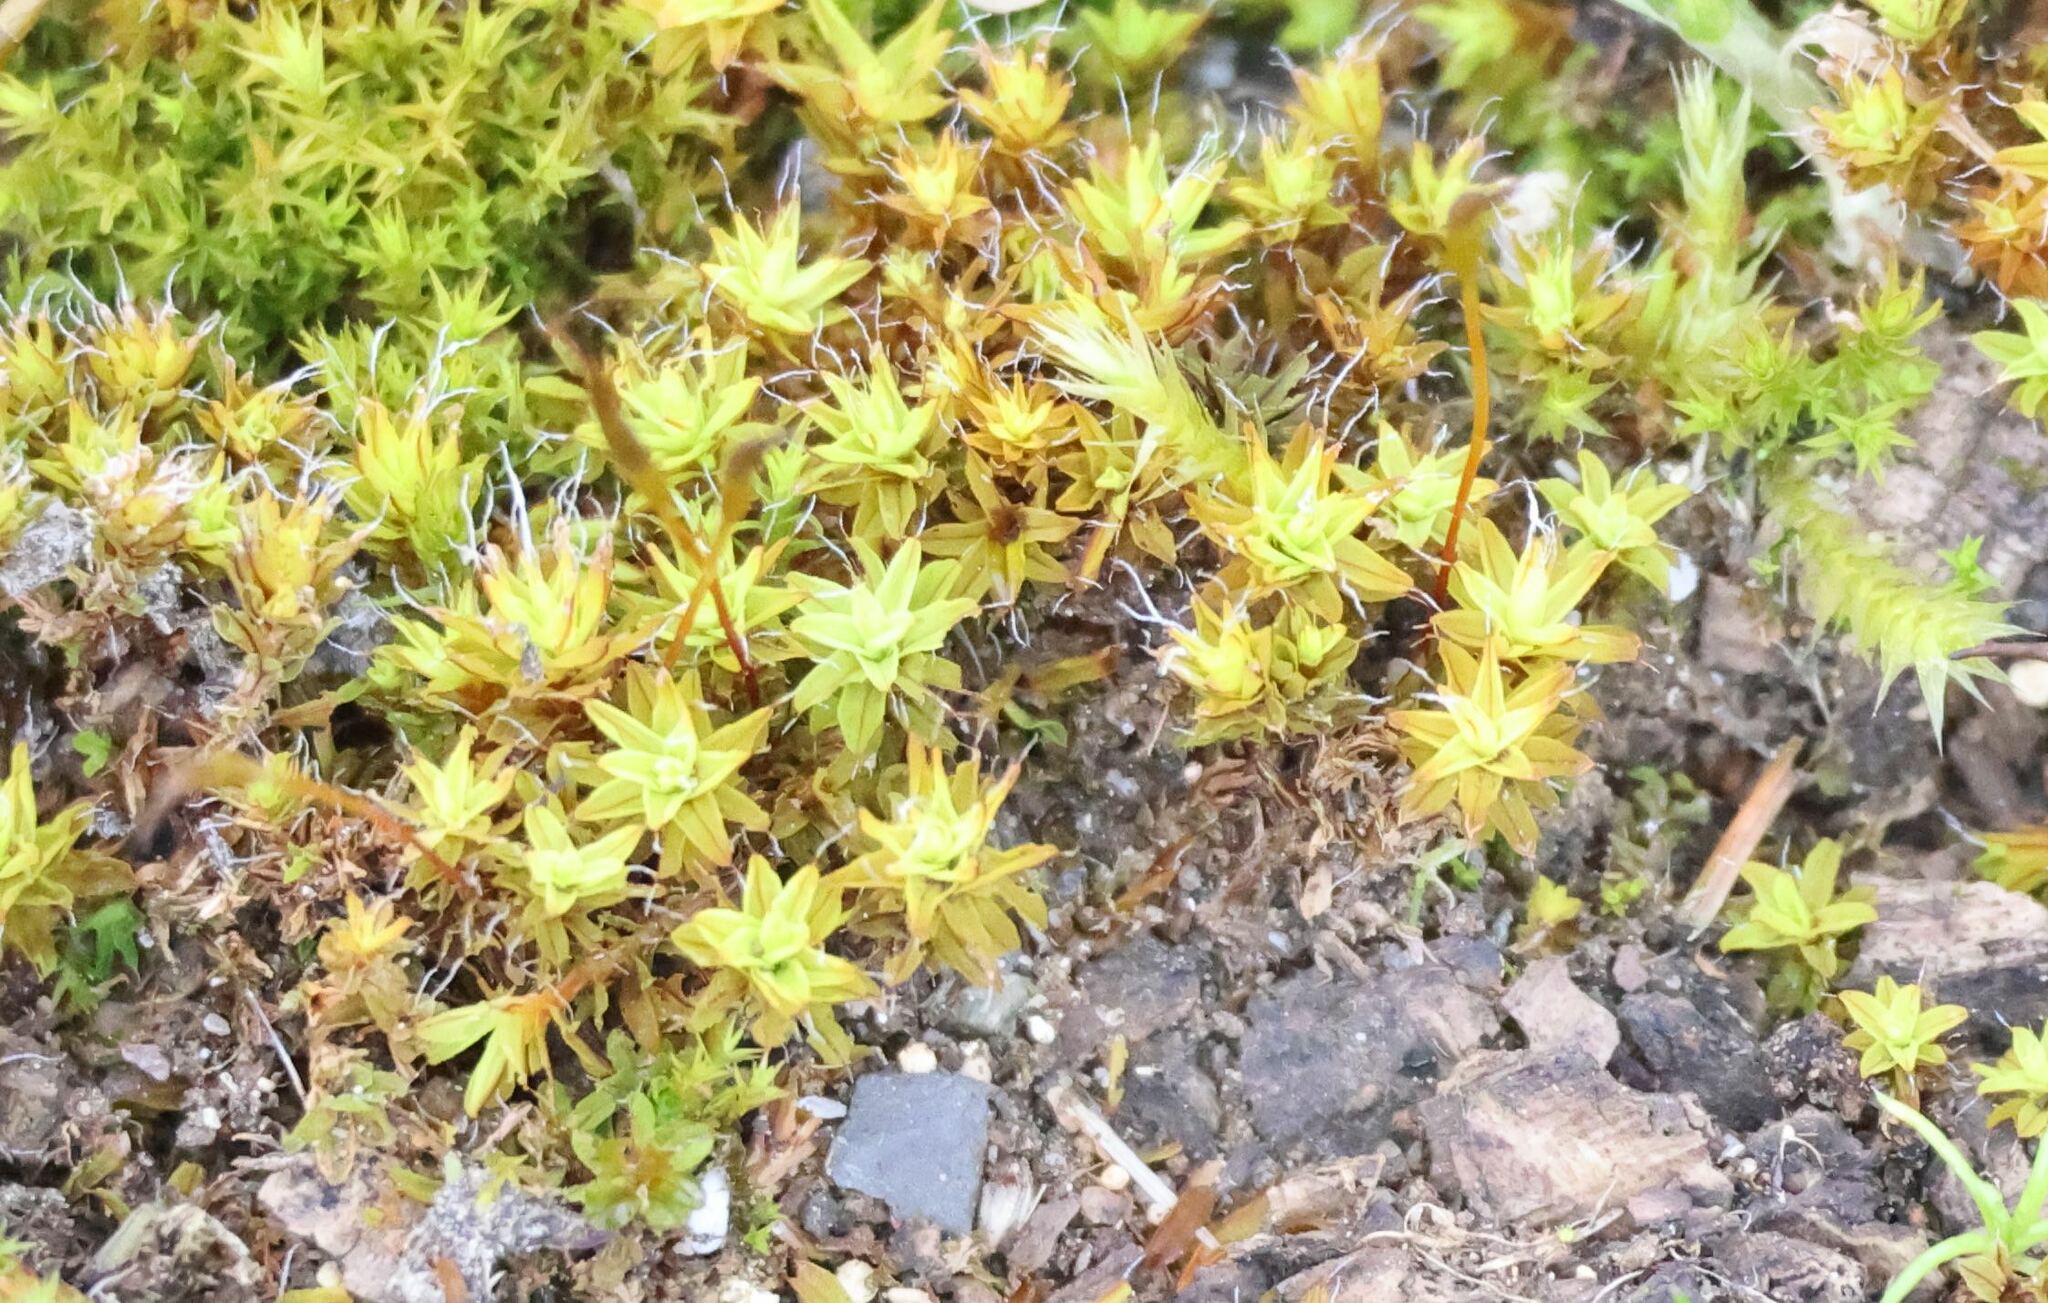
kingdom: Plantae
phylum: Bryophyta
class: Bryopsida
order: Pottiales
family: Pottiaceae
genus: Syntrichia
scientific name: Syntrichia ruralis
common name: Sidewalk screw moss
